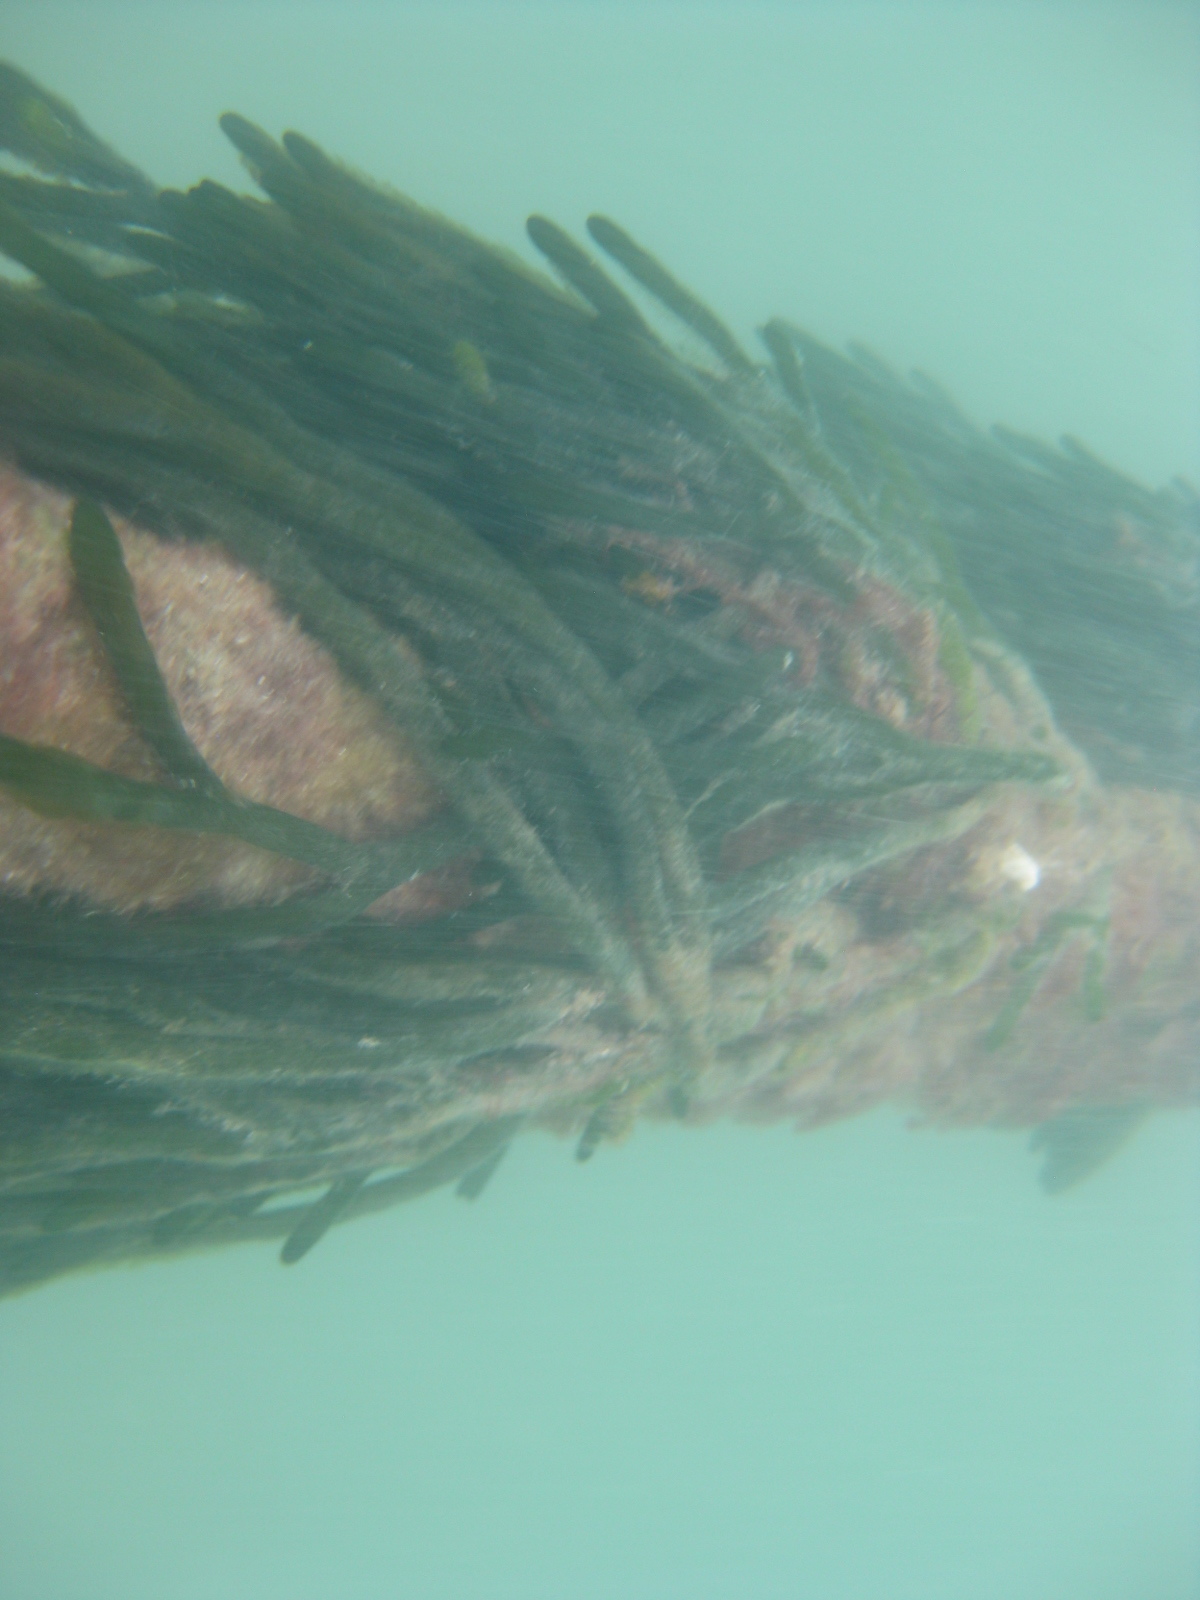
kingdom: Plantae
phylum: Chlorophyta
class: Ulvophyceae
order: Bryopsidales
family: Codiaceae
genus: Codium
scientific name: Codium fragile
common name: Dead man's fingers
